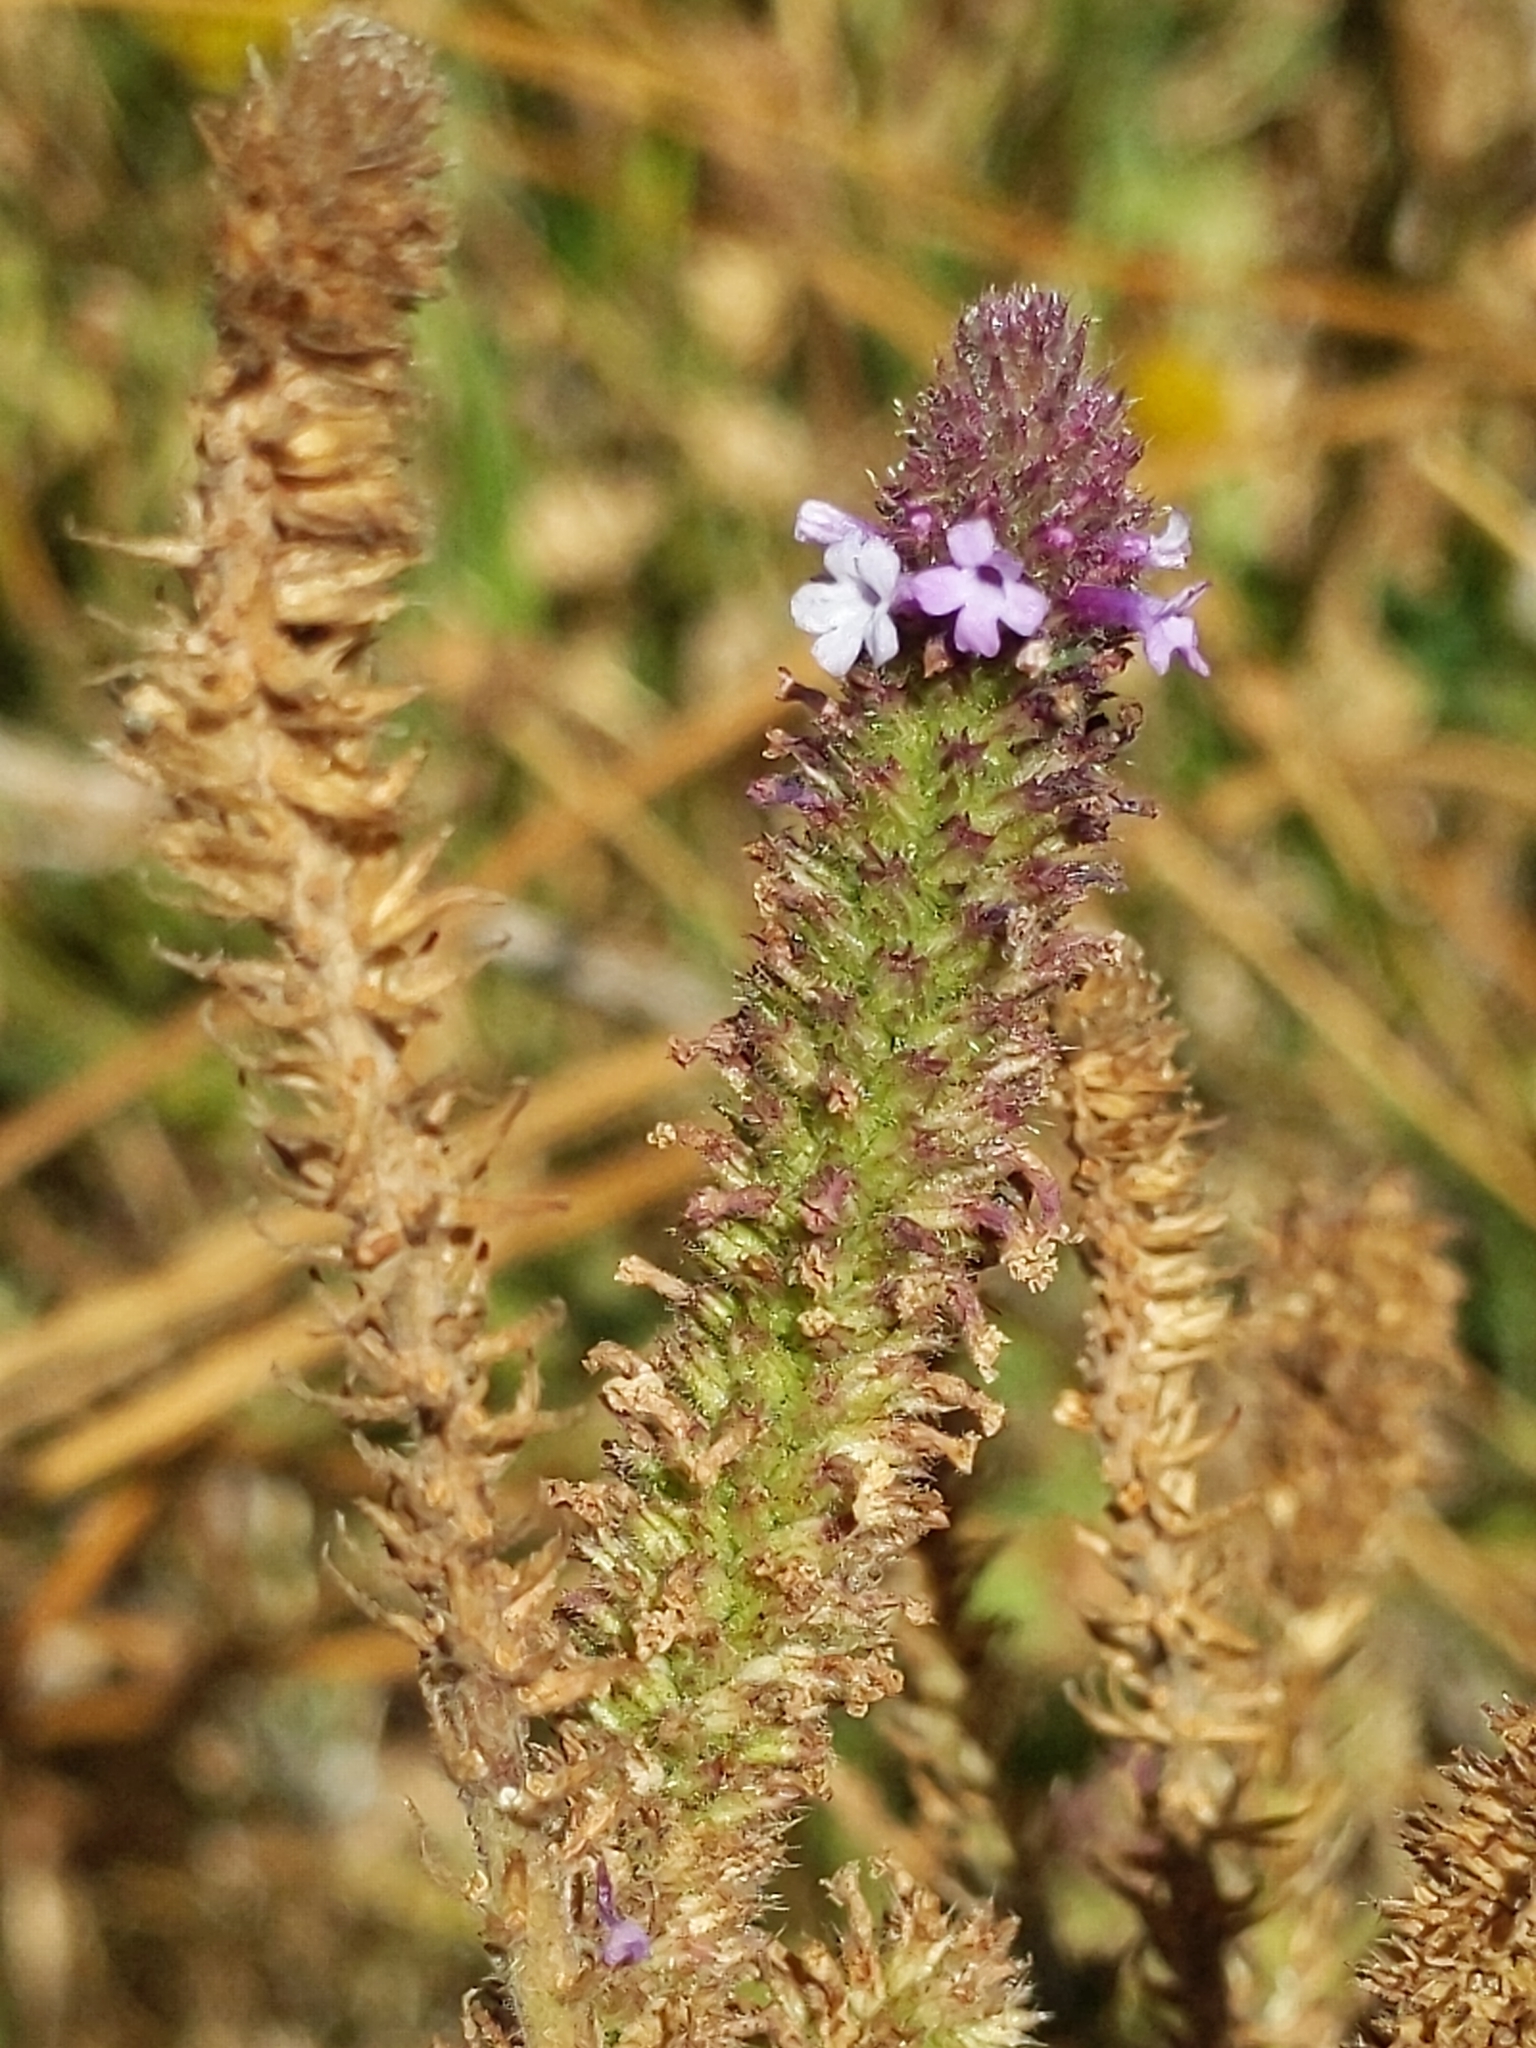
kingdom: Plantae
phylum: Tracheophyta
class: Magnoliopsida
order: Lamiales
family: Verbenaceae
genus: Verbena
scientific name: Verbena lasiostachys
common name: Vervain
